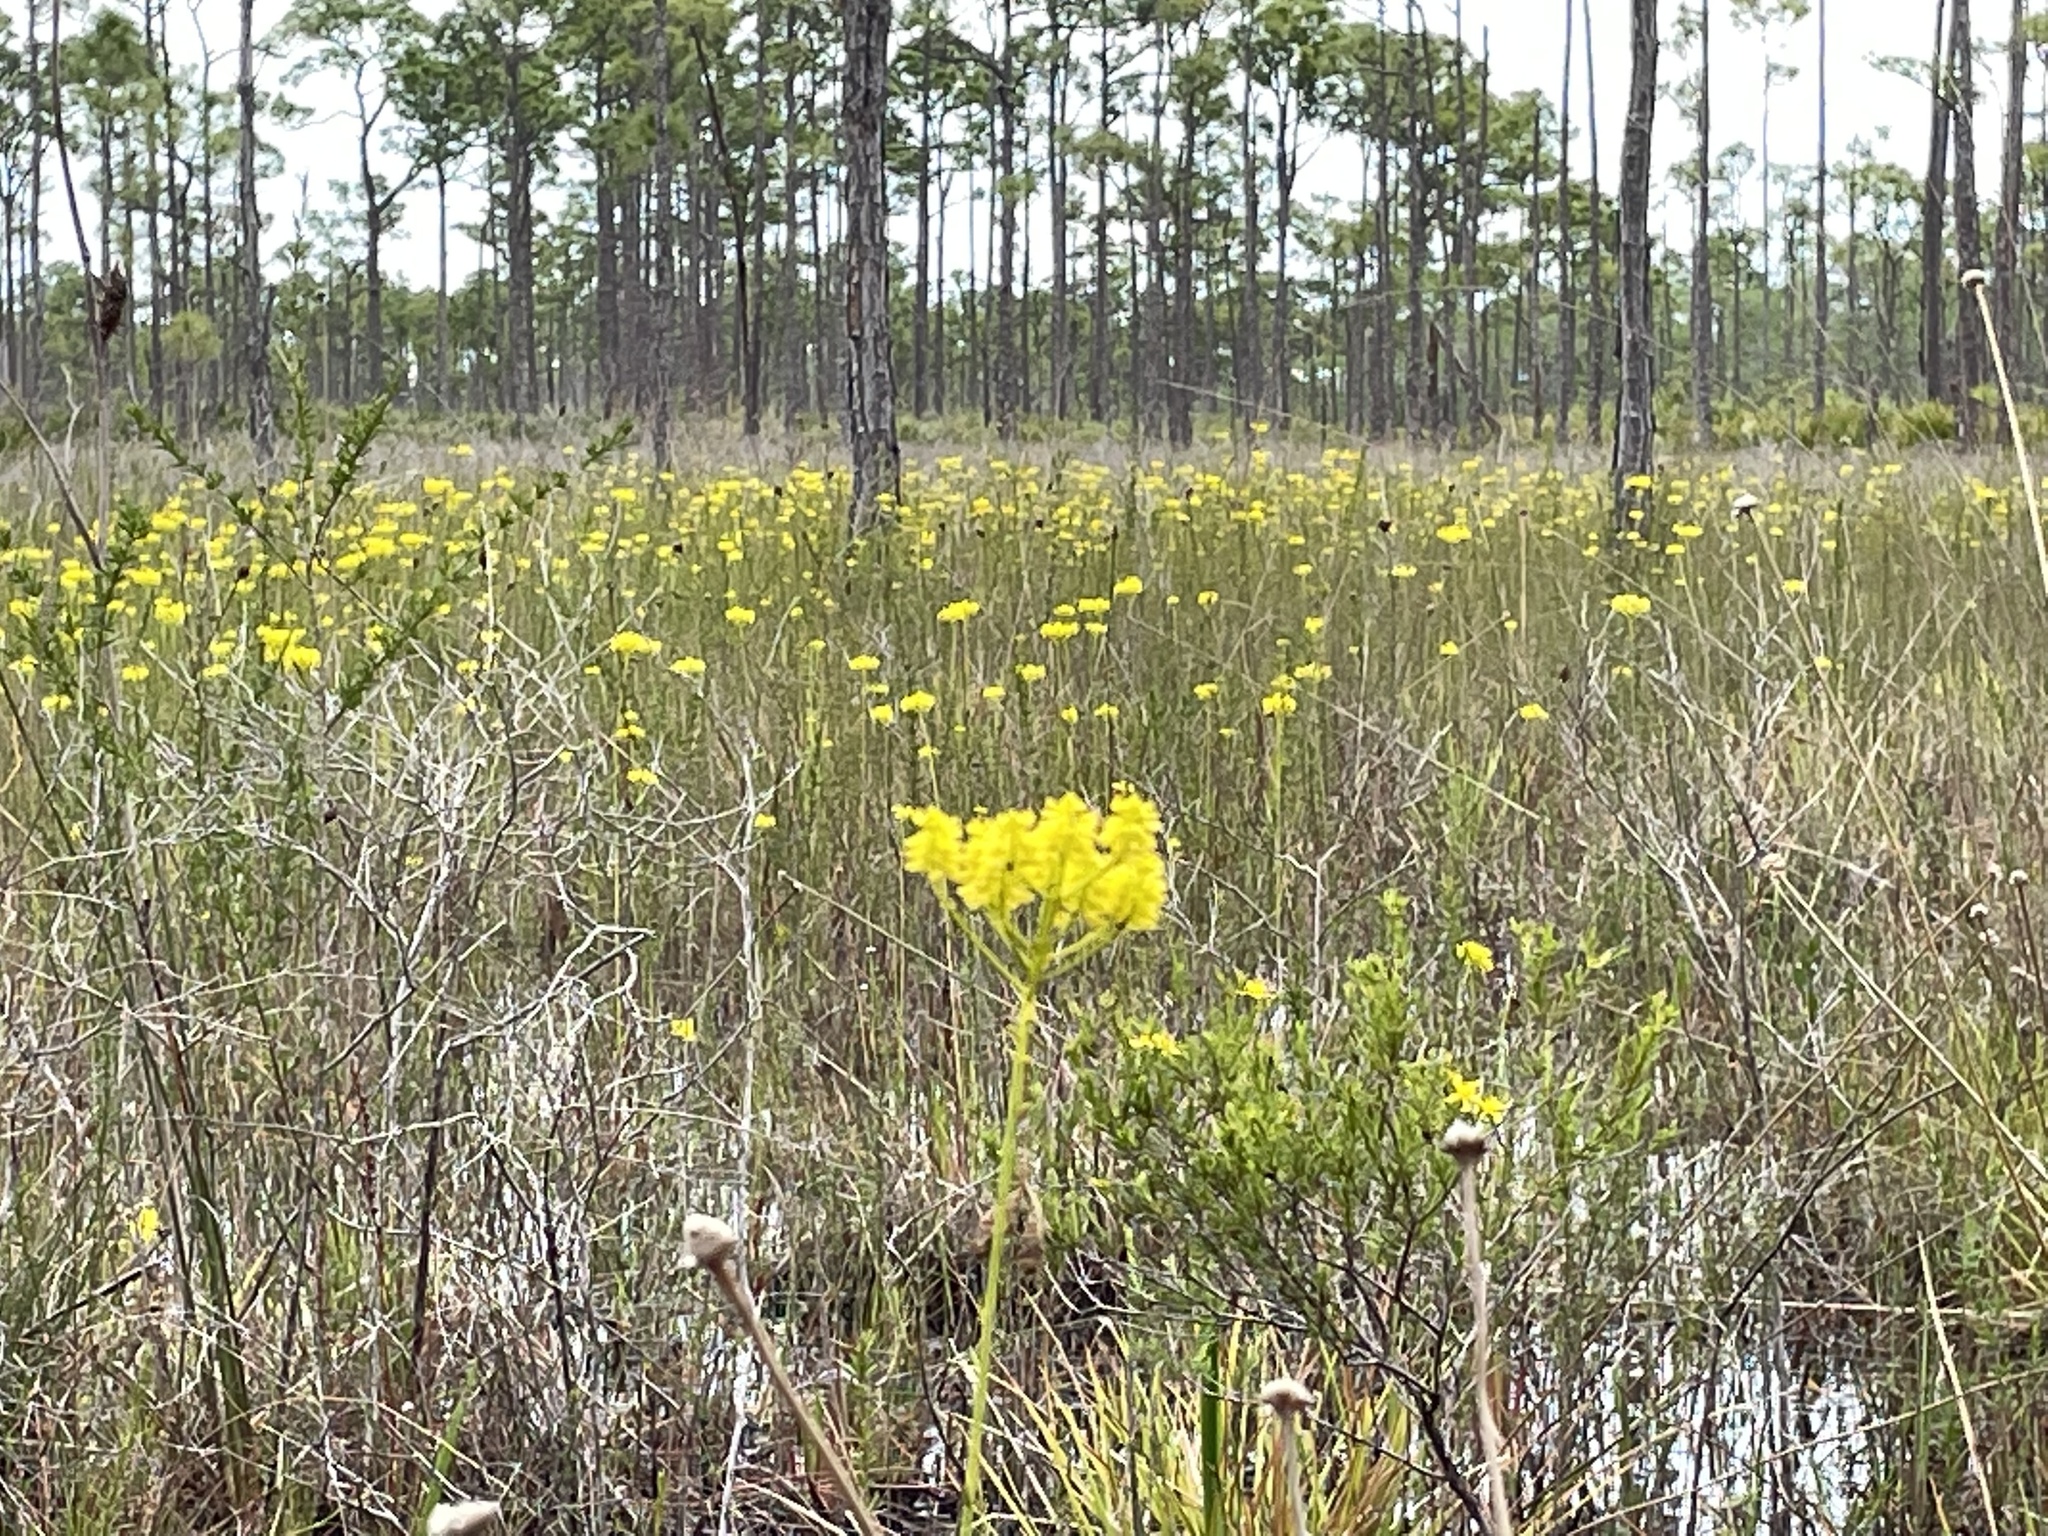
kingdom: Plantae
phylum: Tracheophyta
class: Magnoliopsida
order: Fabales
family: Polygalaceae
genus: Polygala
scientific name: Polygala cymosa
